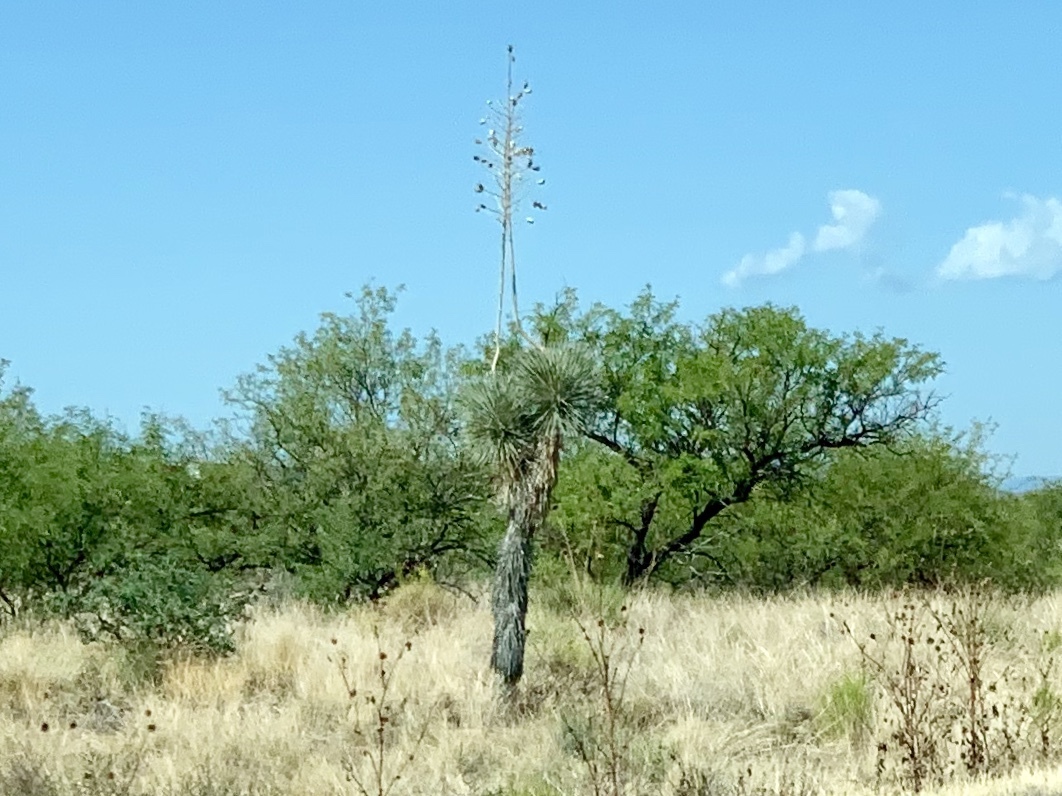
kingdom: Plantae
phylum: Tracheophyta
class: Liliopsida
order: Asparagales
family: Asparagaceae
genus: Yucca
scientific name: Yucca elata
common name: Palmella
